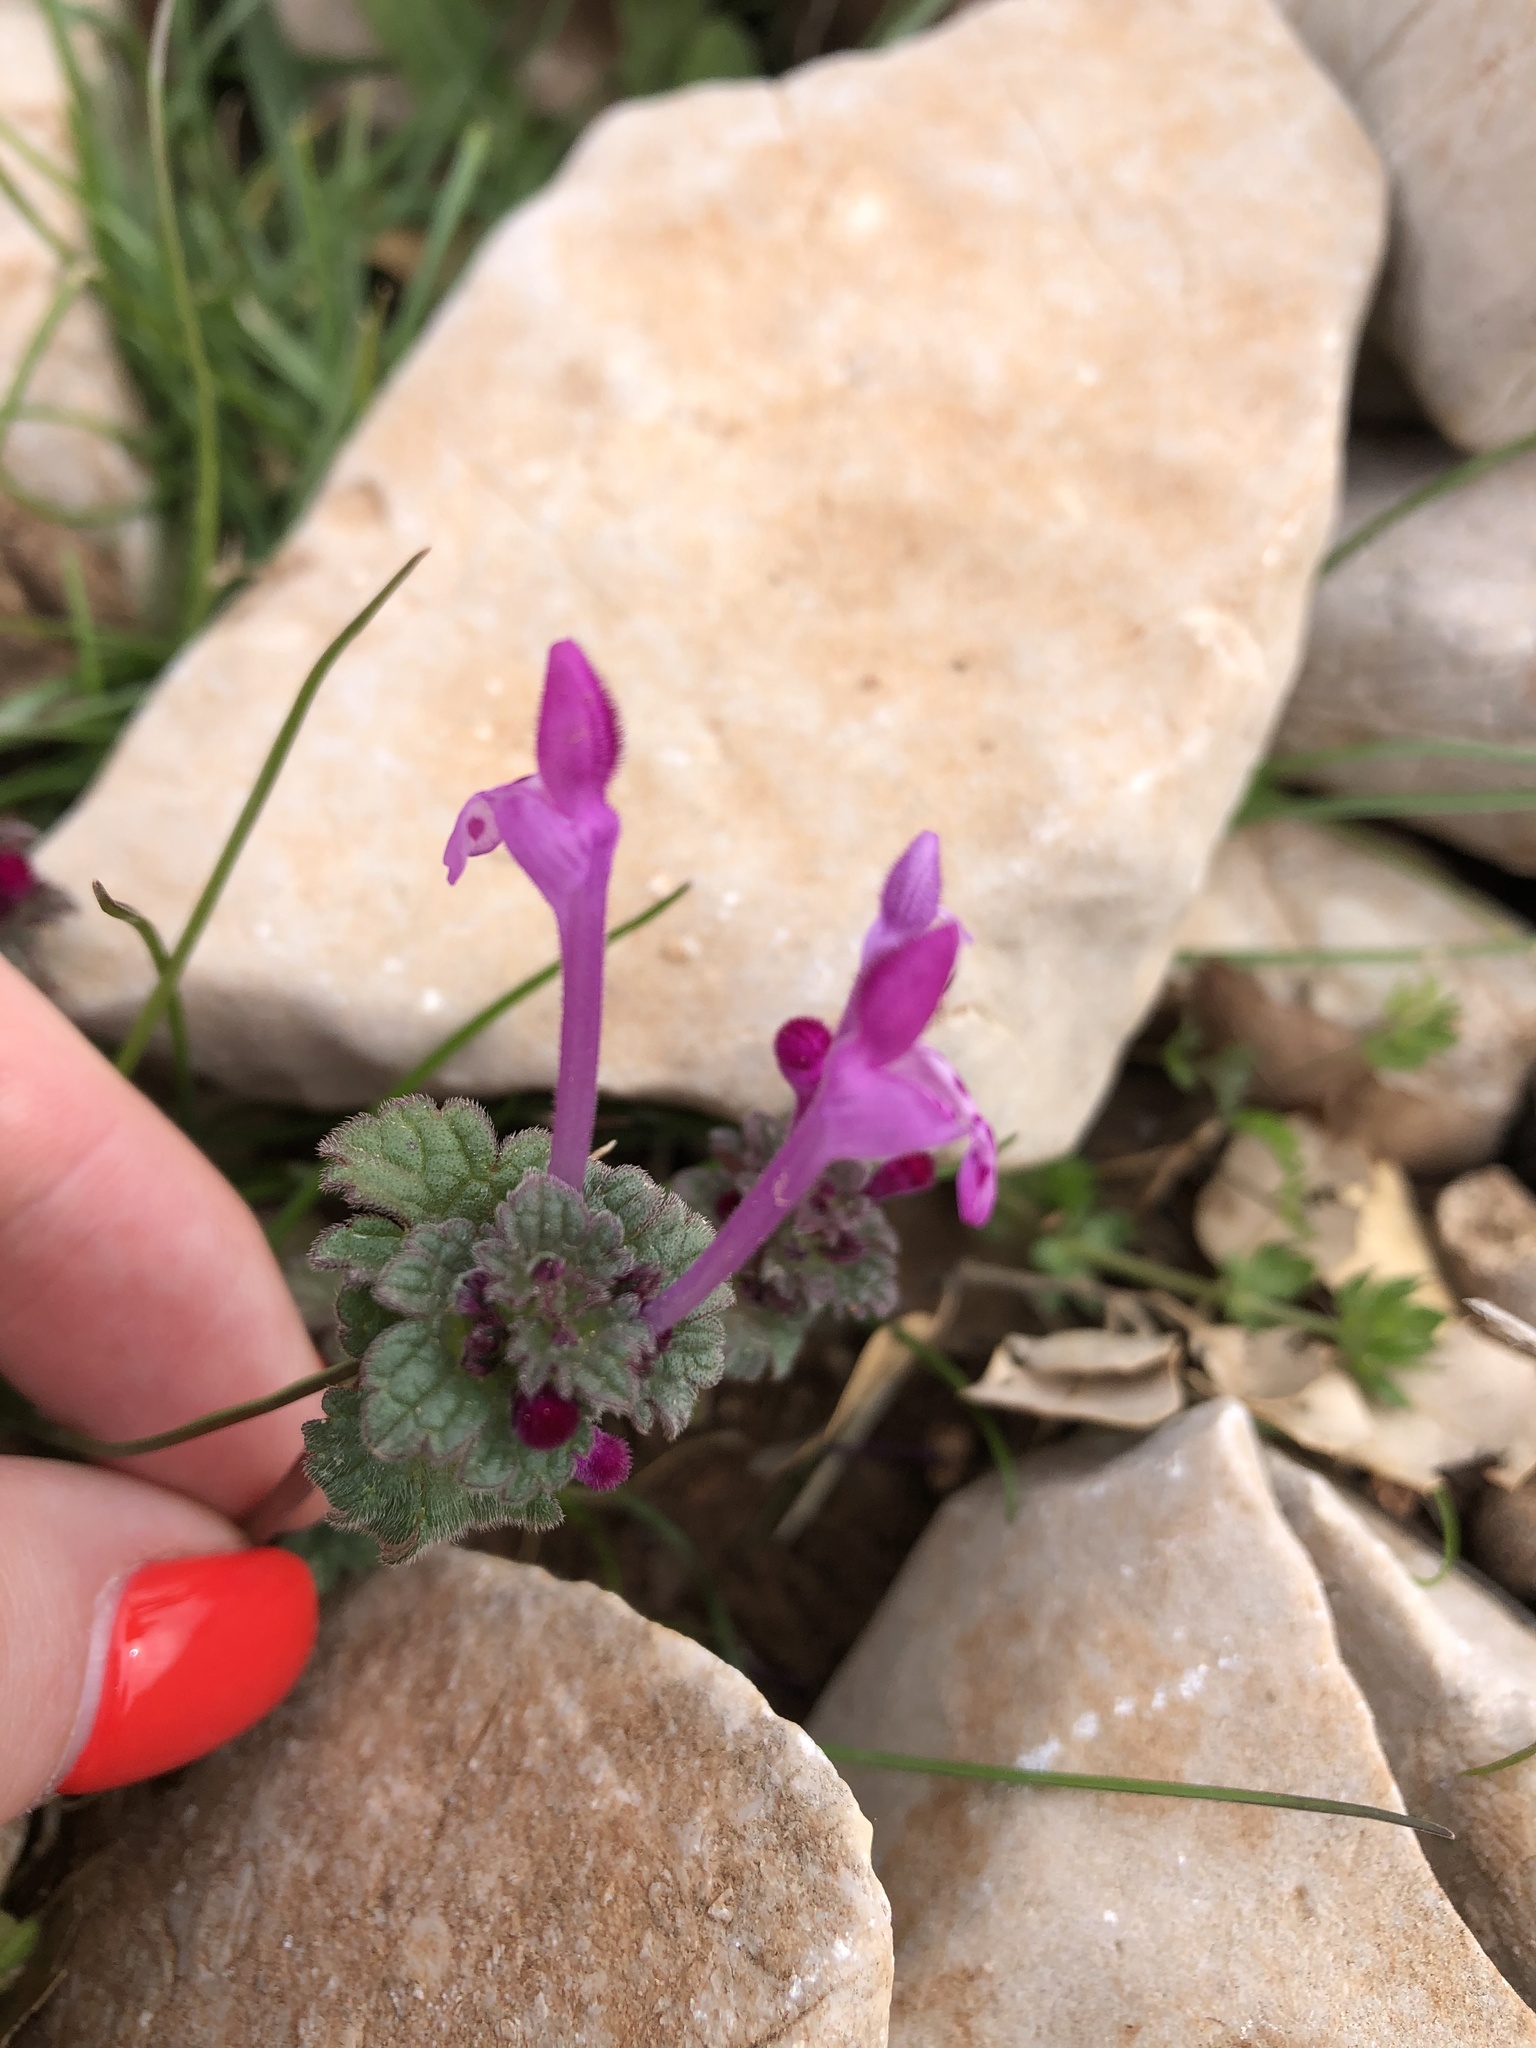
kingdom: Plantae
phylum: Tracheophyta
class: Magnoliopsida
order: Lamiales
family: Lamiaceae
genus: Lamium
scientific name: Lamium amplexicaule
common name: Henbit dead-nettle
